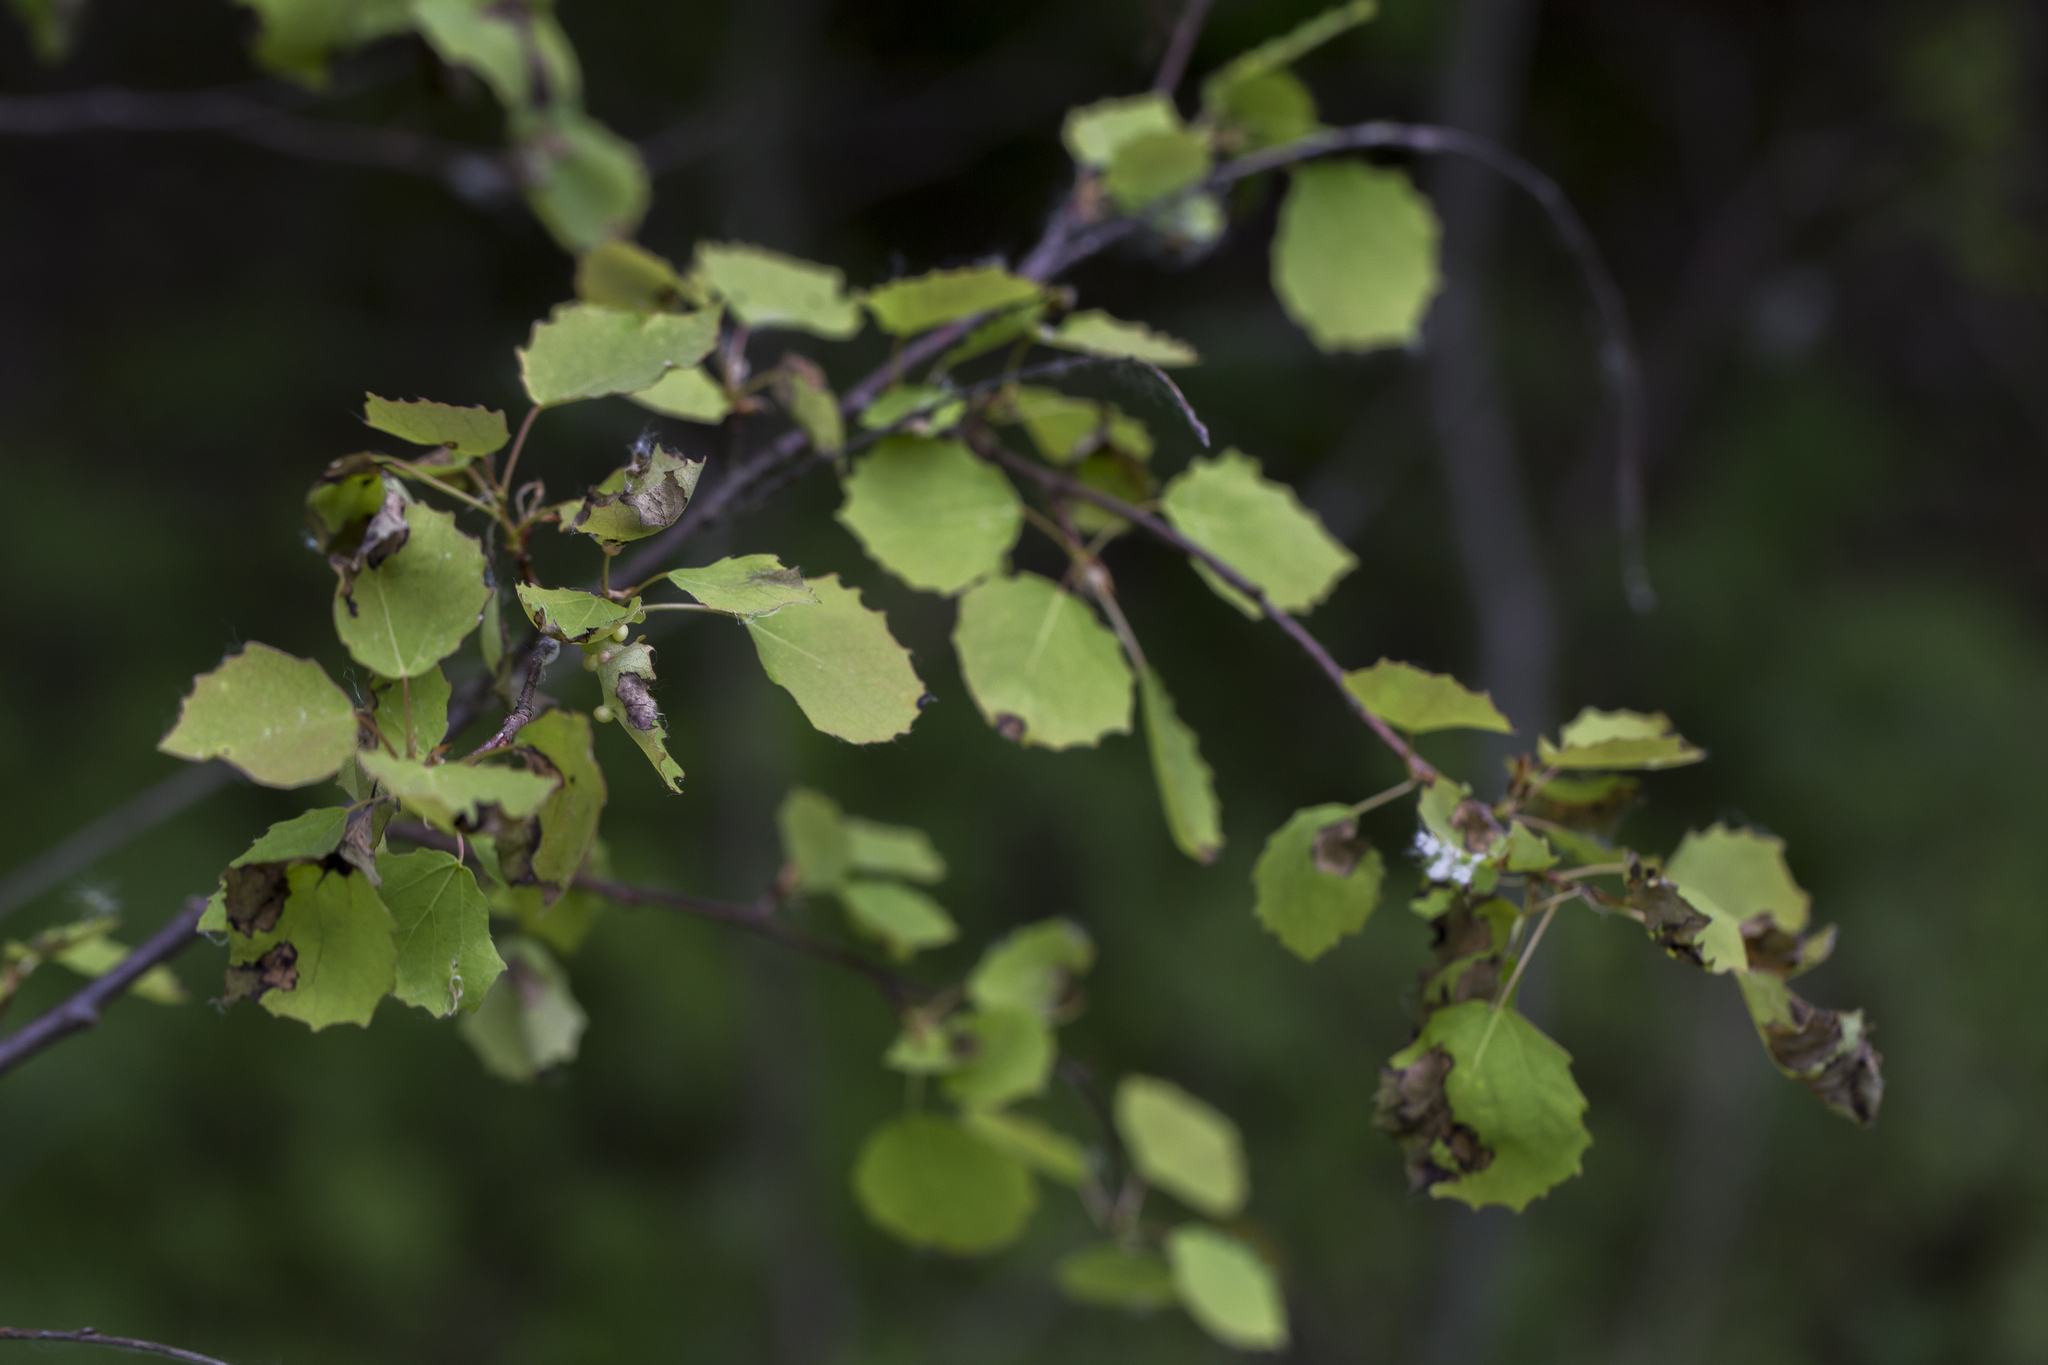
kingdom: Plantae
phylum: Tracheophyta
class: Magnoliopsida
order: Malpighiales
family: Salicaceae
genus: Populus
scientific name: Populus tremula
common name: European aspen
